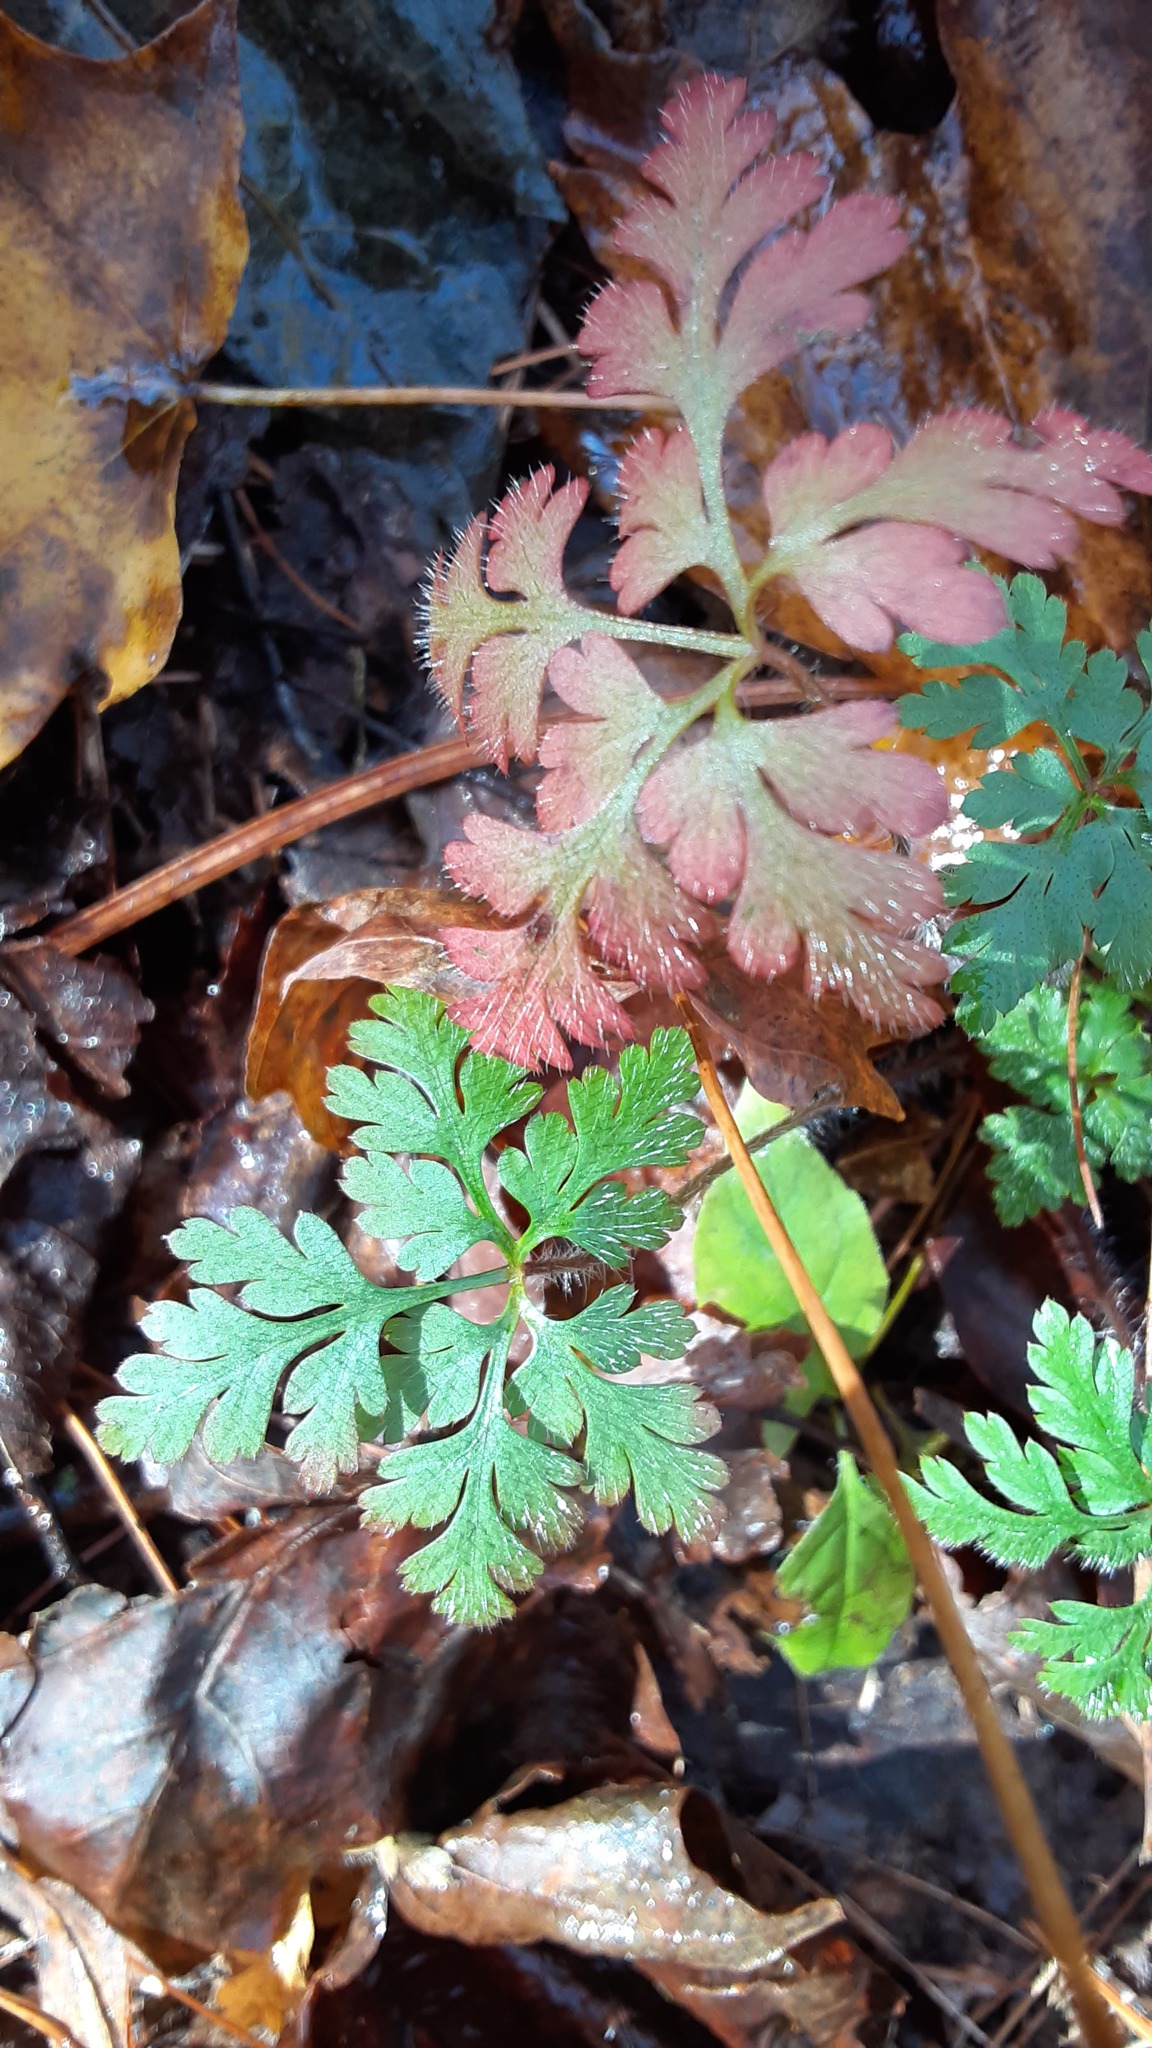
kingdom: Plantae
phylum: Tracheophyta
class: Magnoliopsida
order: Geraniales
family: Geraniaceae
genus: Geranium
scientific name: Geranium robertianum
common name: Herb-robert
